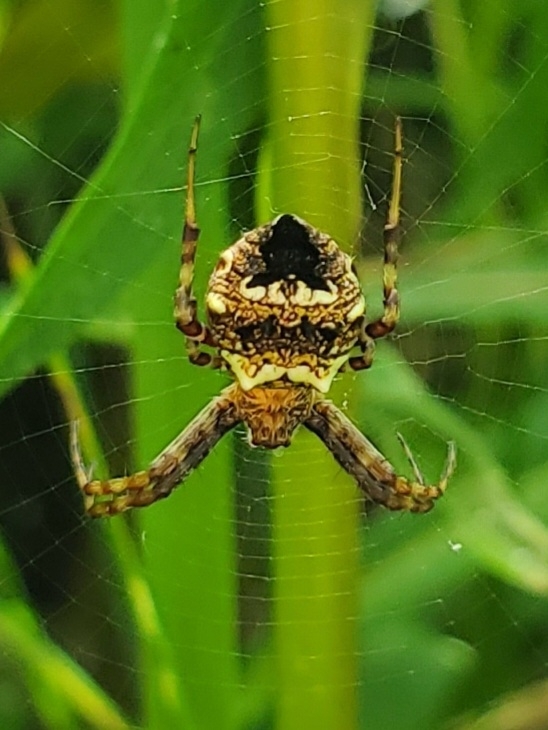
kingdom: Animalia
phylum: Arthropoda
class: Arachnida
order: Araneae
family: Araneidae
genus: Gea
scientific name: Gea heptagon
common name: Orb weavers
